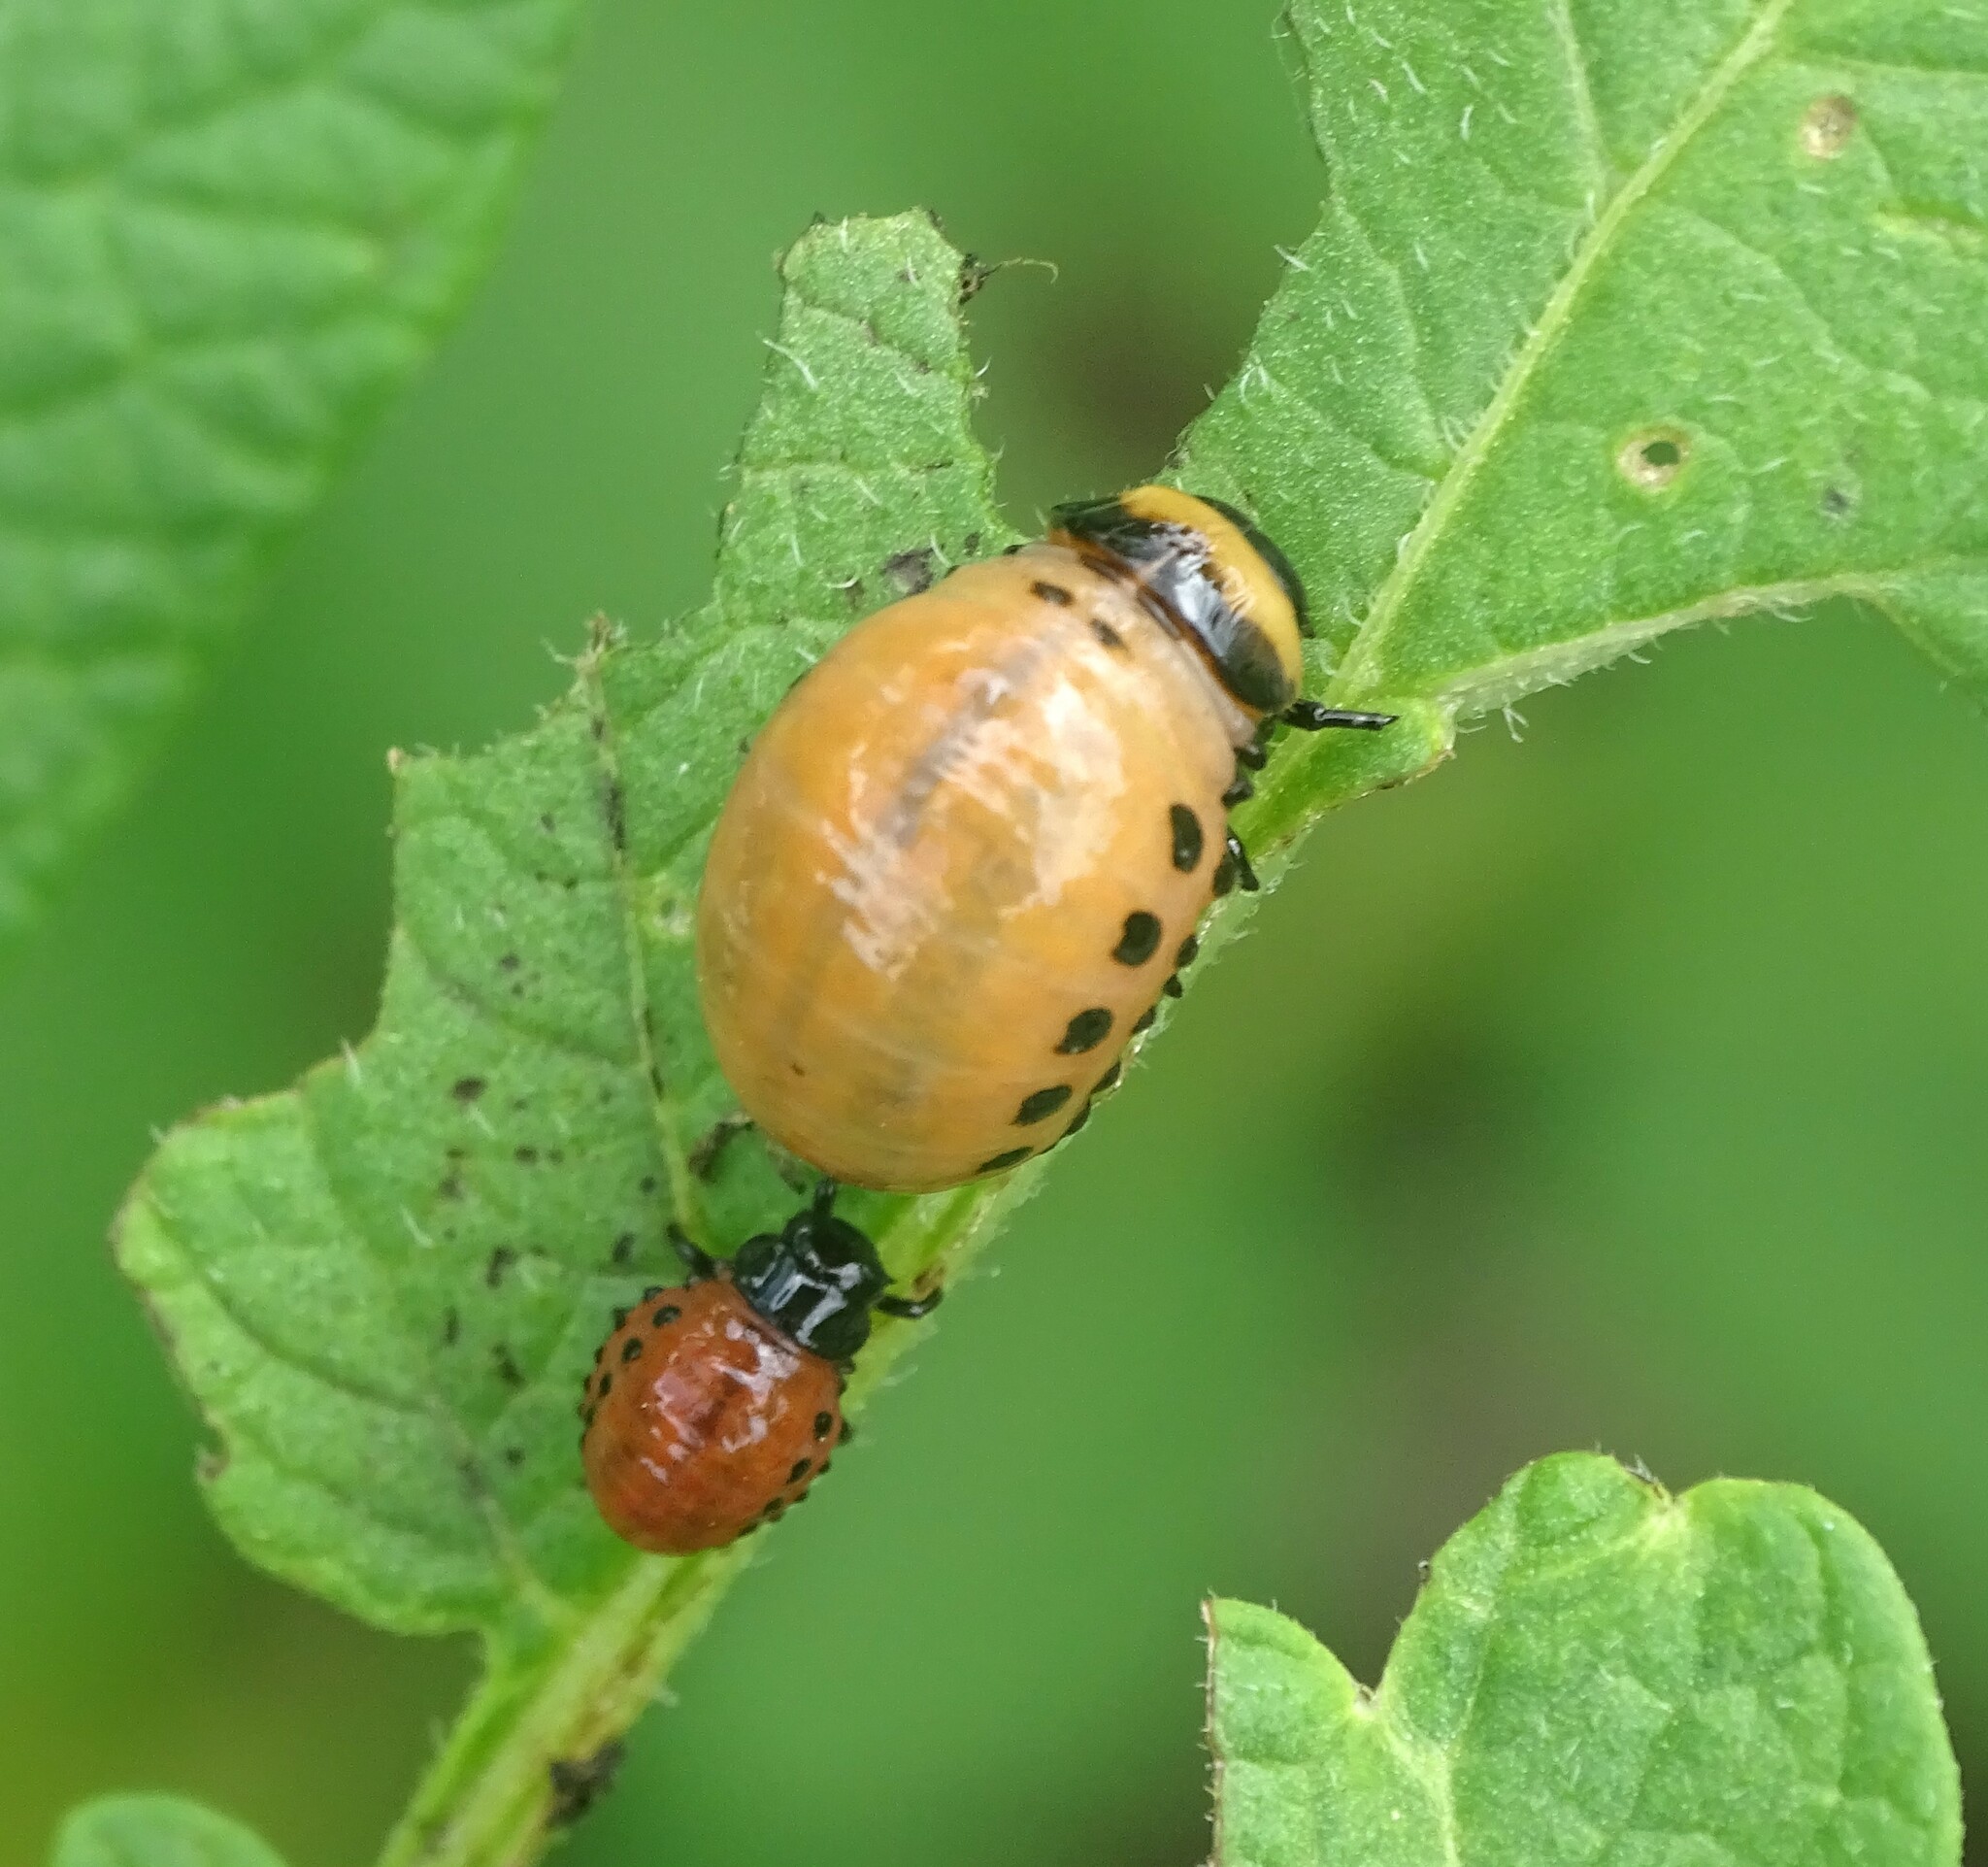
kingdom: Animalia
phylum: Arthropoda
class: Insecta
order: Coleoptera
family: Chrysomelidae
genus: Leptinotarsa
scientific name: Leptinotarsa decemlineata
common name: Colorado potato beetle
